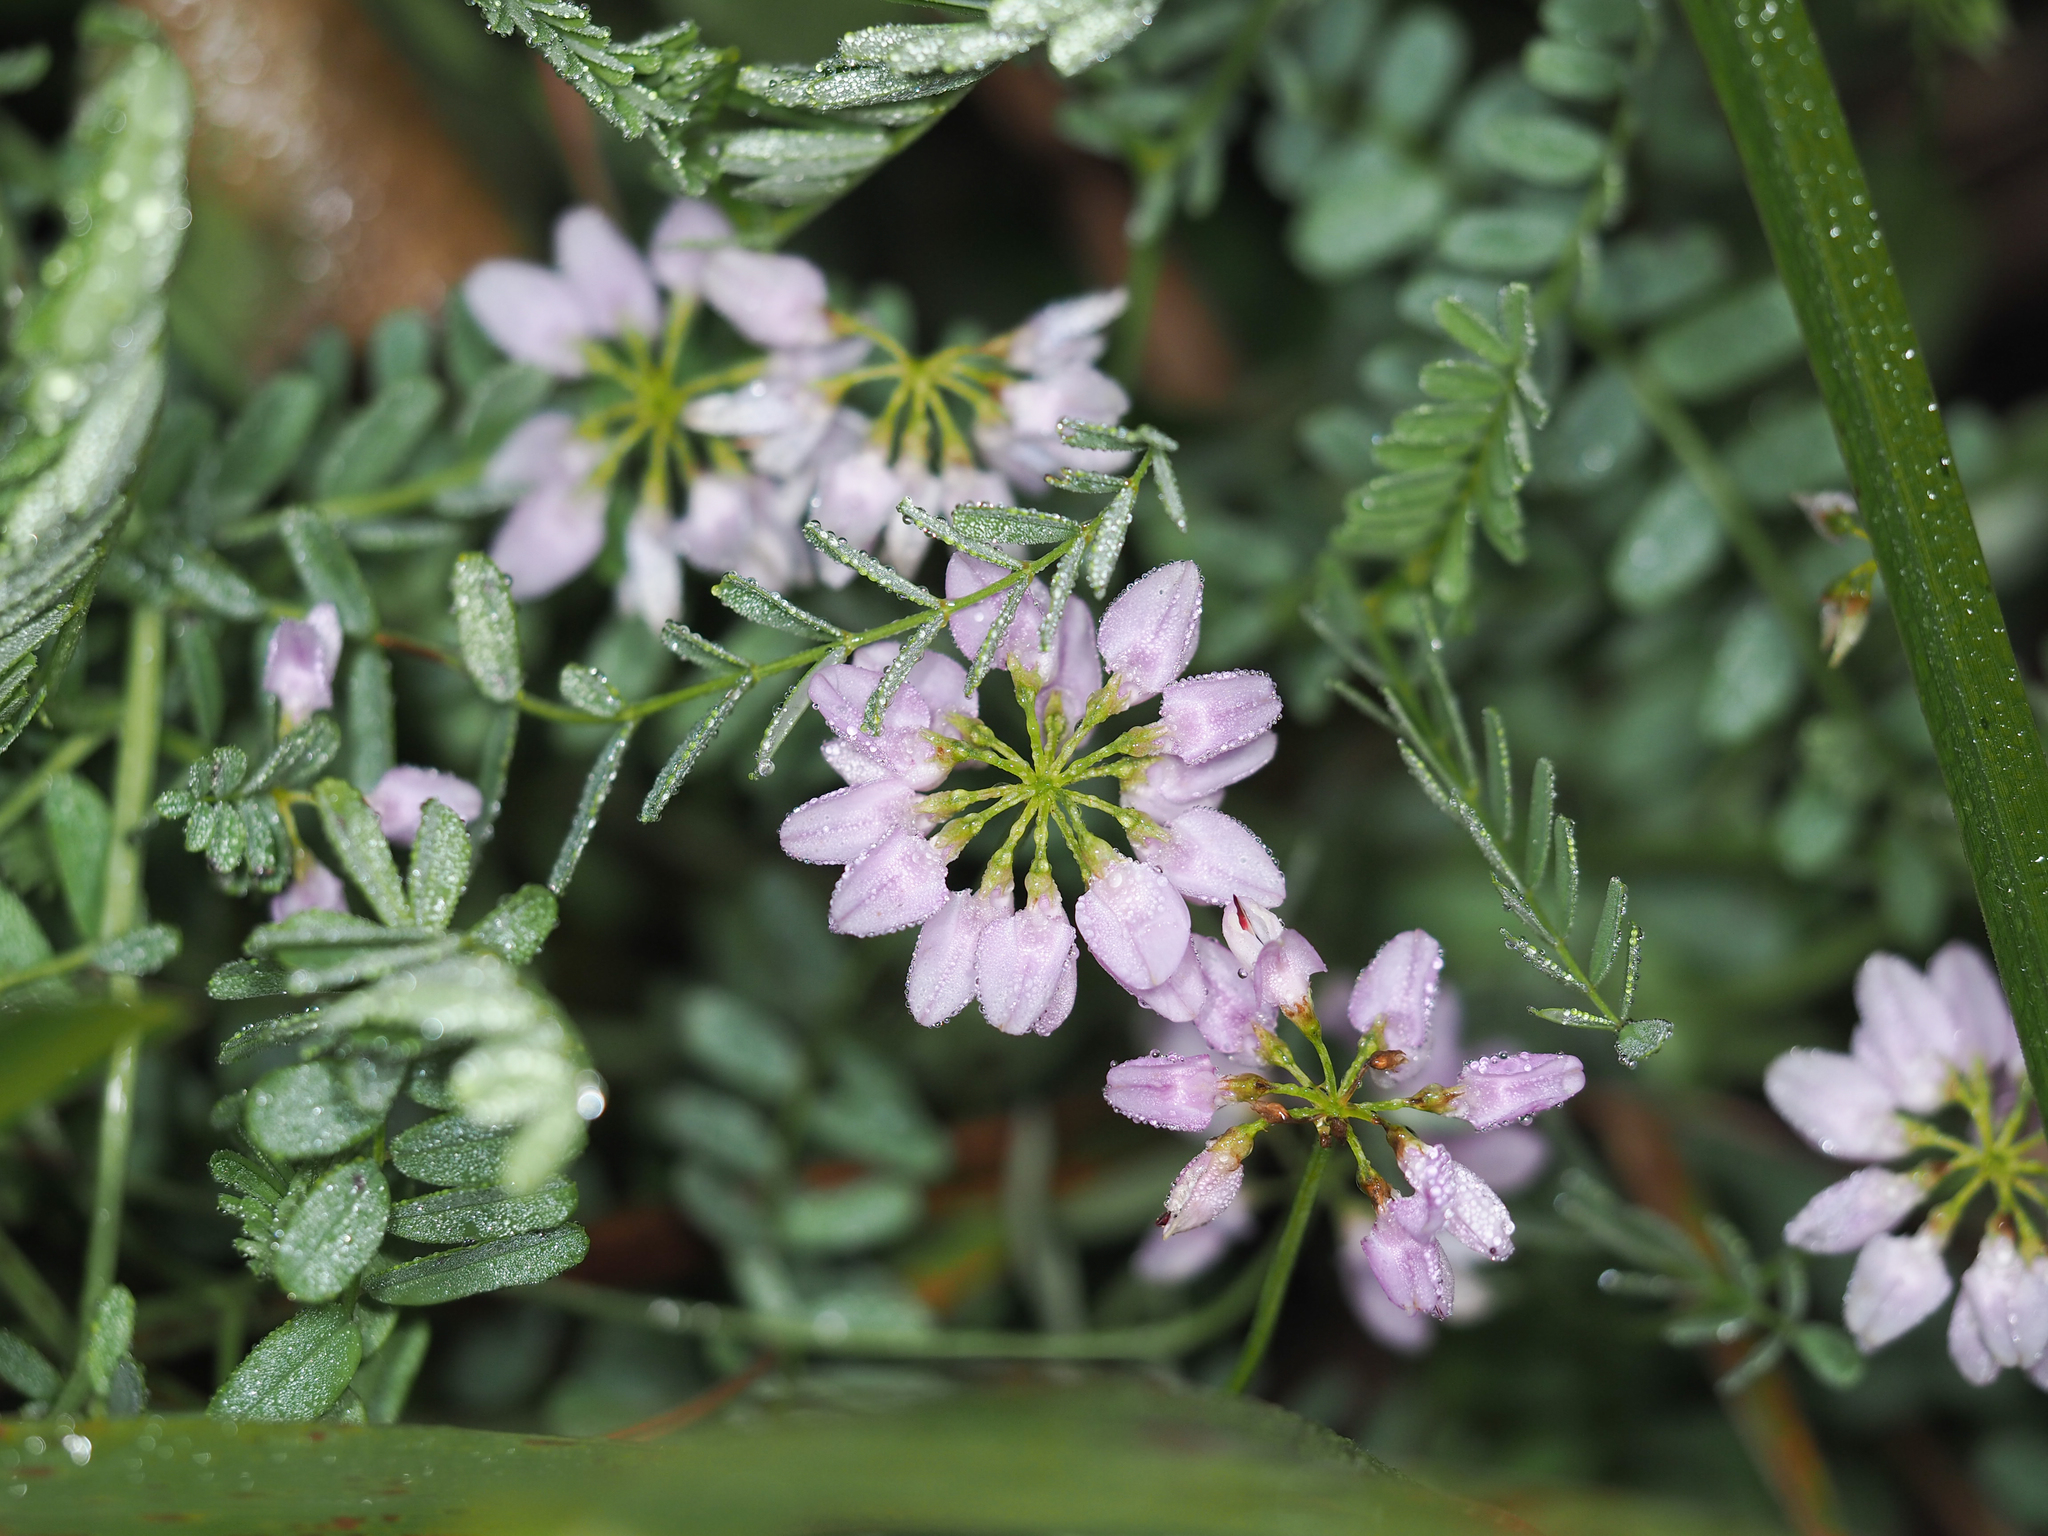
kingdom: Plantae
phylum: Tracheophyta
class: Magnoliopsida
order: Fabales
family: Fabaceae
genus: Coronilla
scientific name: Coronilla varia
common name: Crownvetch
